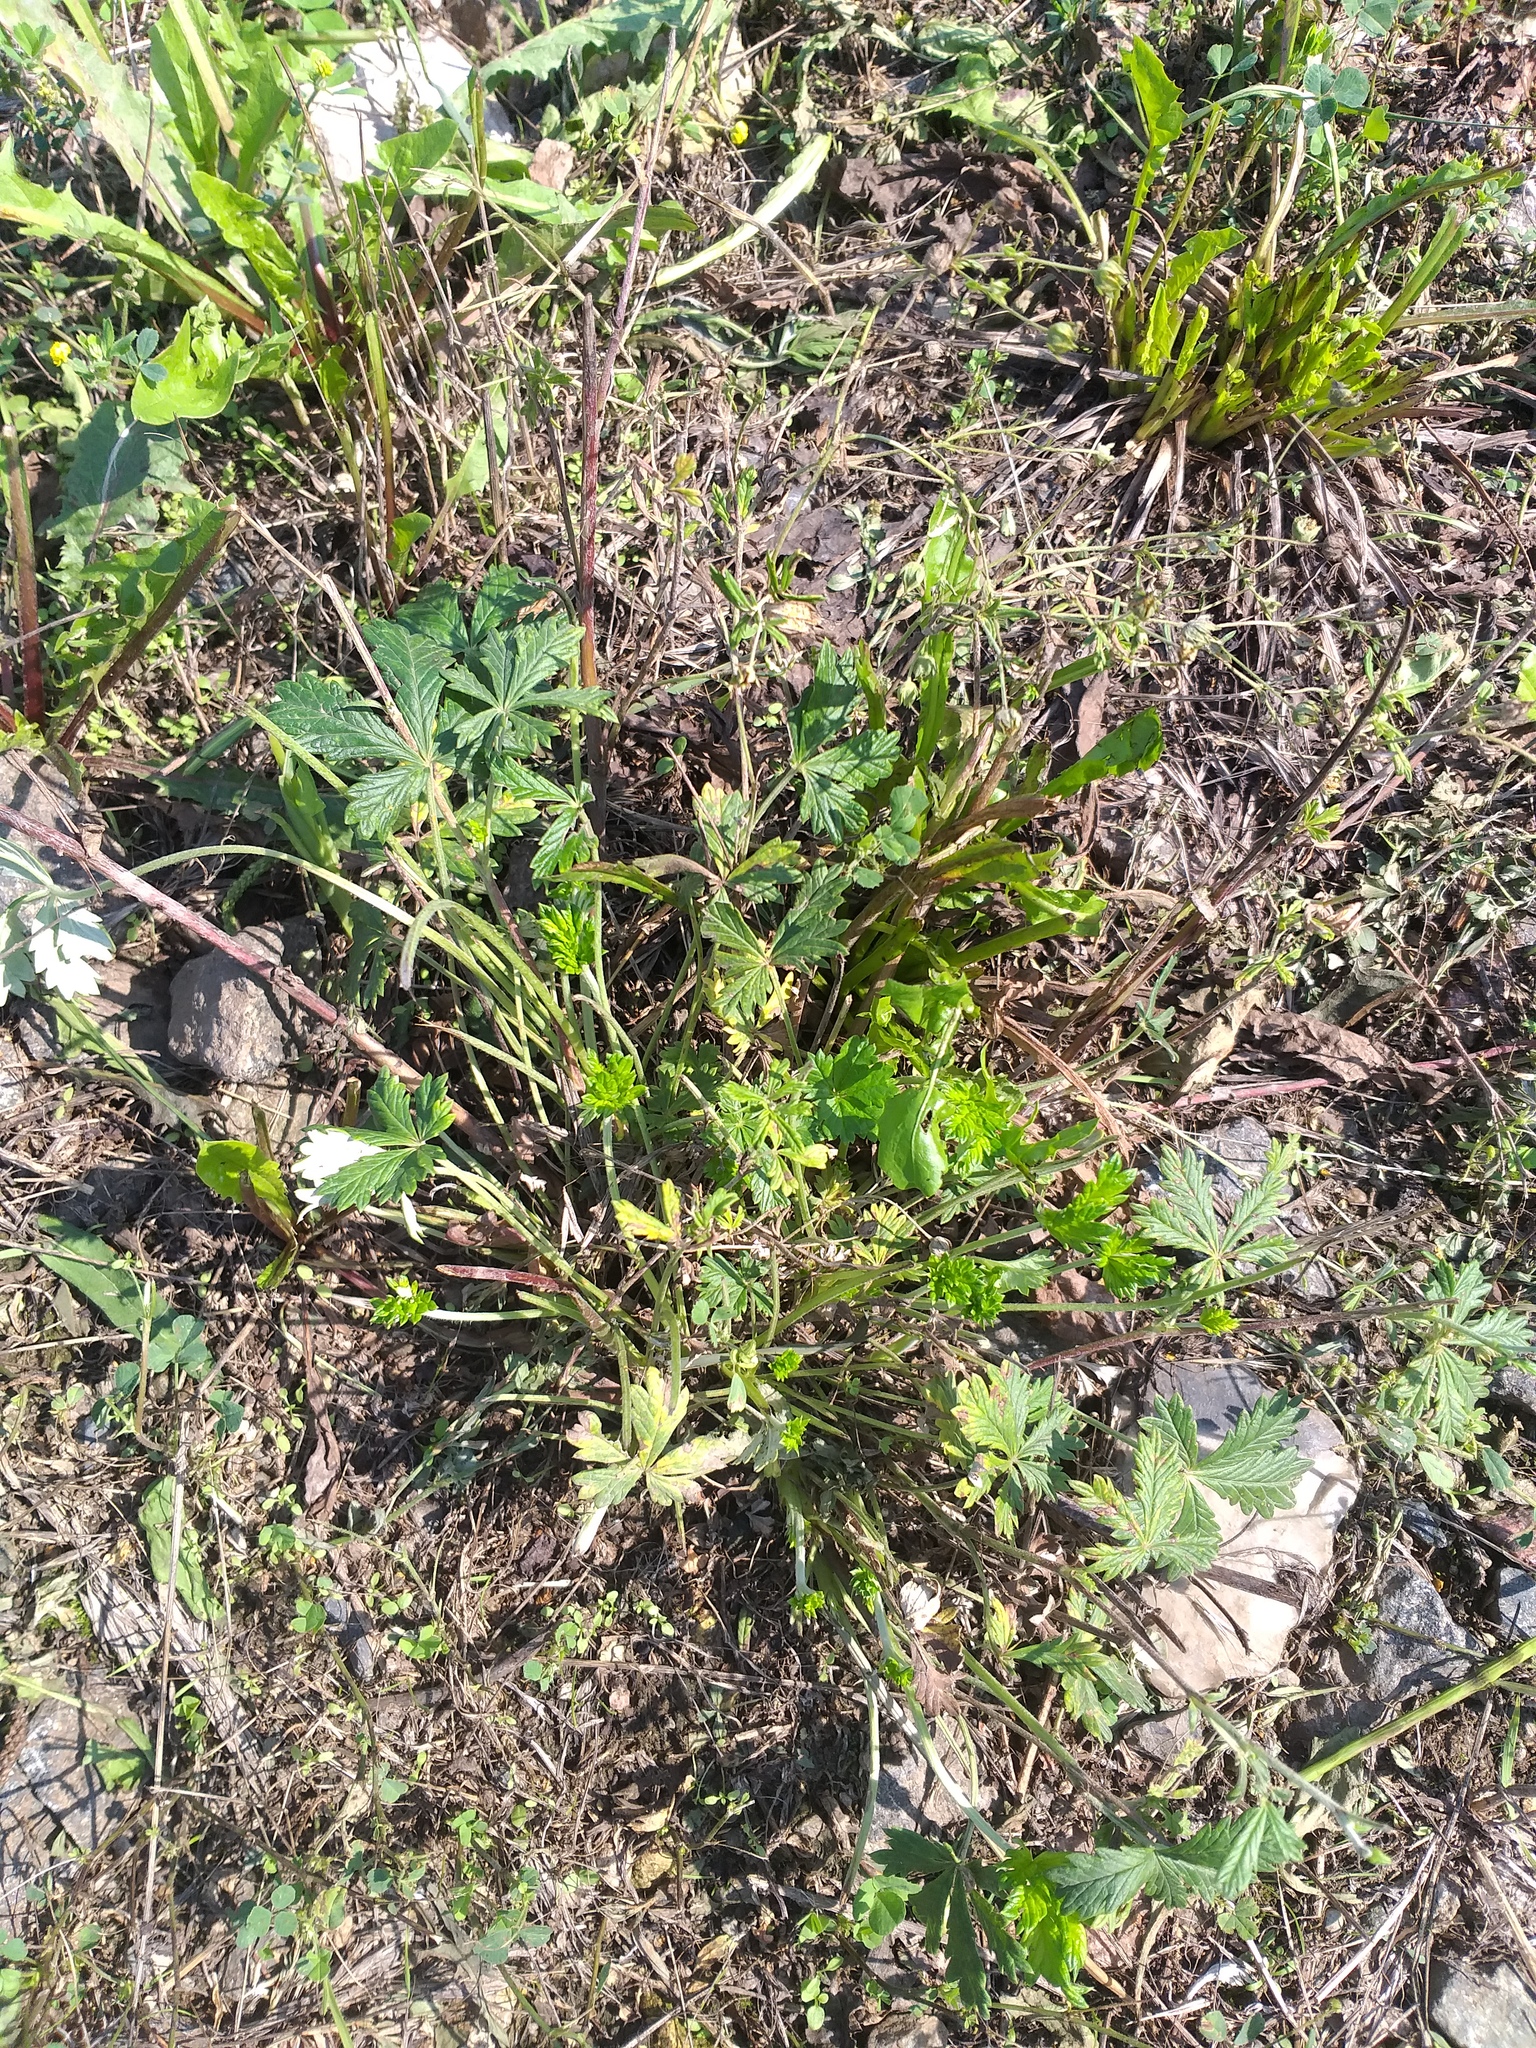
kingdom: Plantae
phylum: Tracheophyta
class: Magnoliopsida
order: Rosales
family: Rosaceae
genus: Potentilla
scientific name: Potentilla argentea
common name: Hoary cinquefoil
